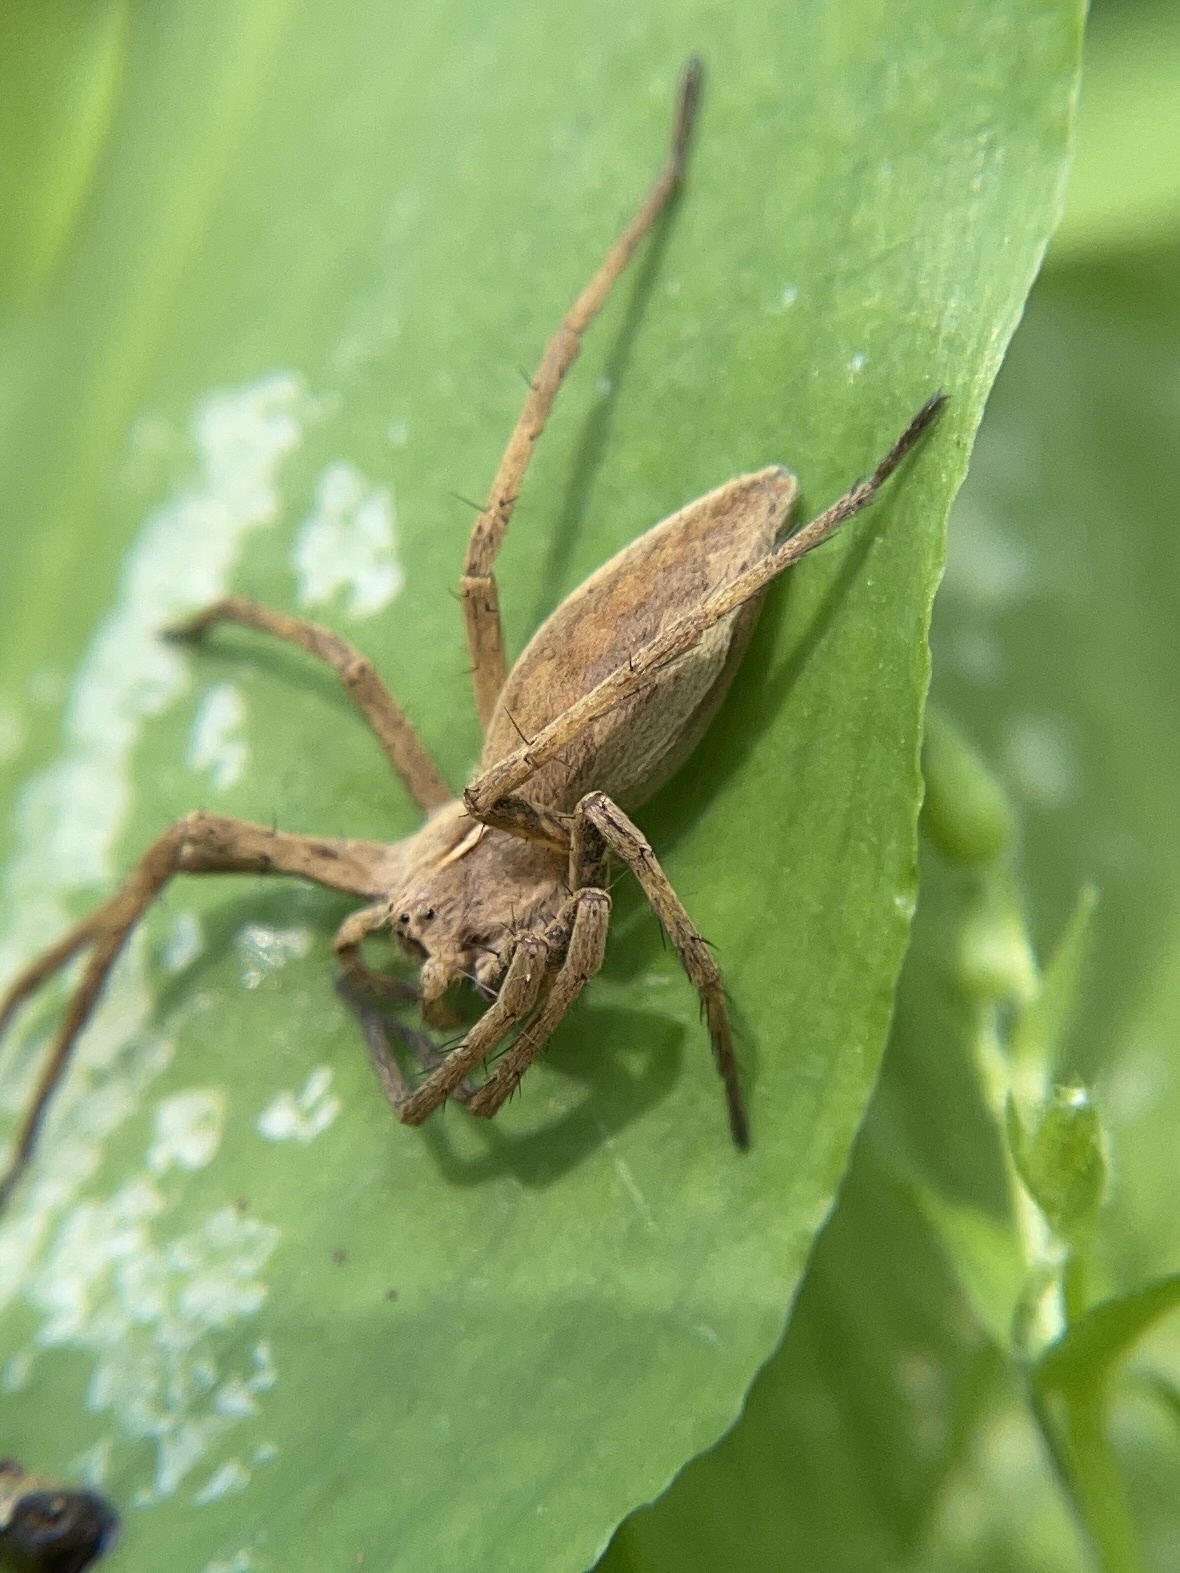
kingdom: Animalia
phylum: Arthropoda
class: Arachnida
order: Araneae
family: Pisauridae
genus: Pisaura
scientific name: Pisaura mirabilis
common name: Tent spider
